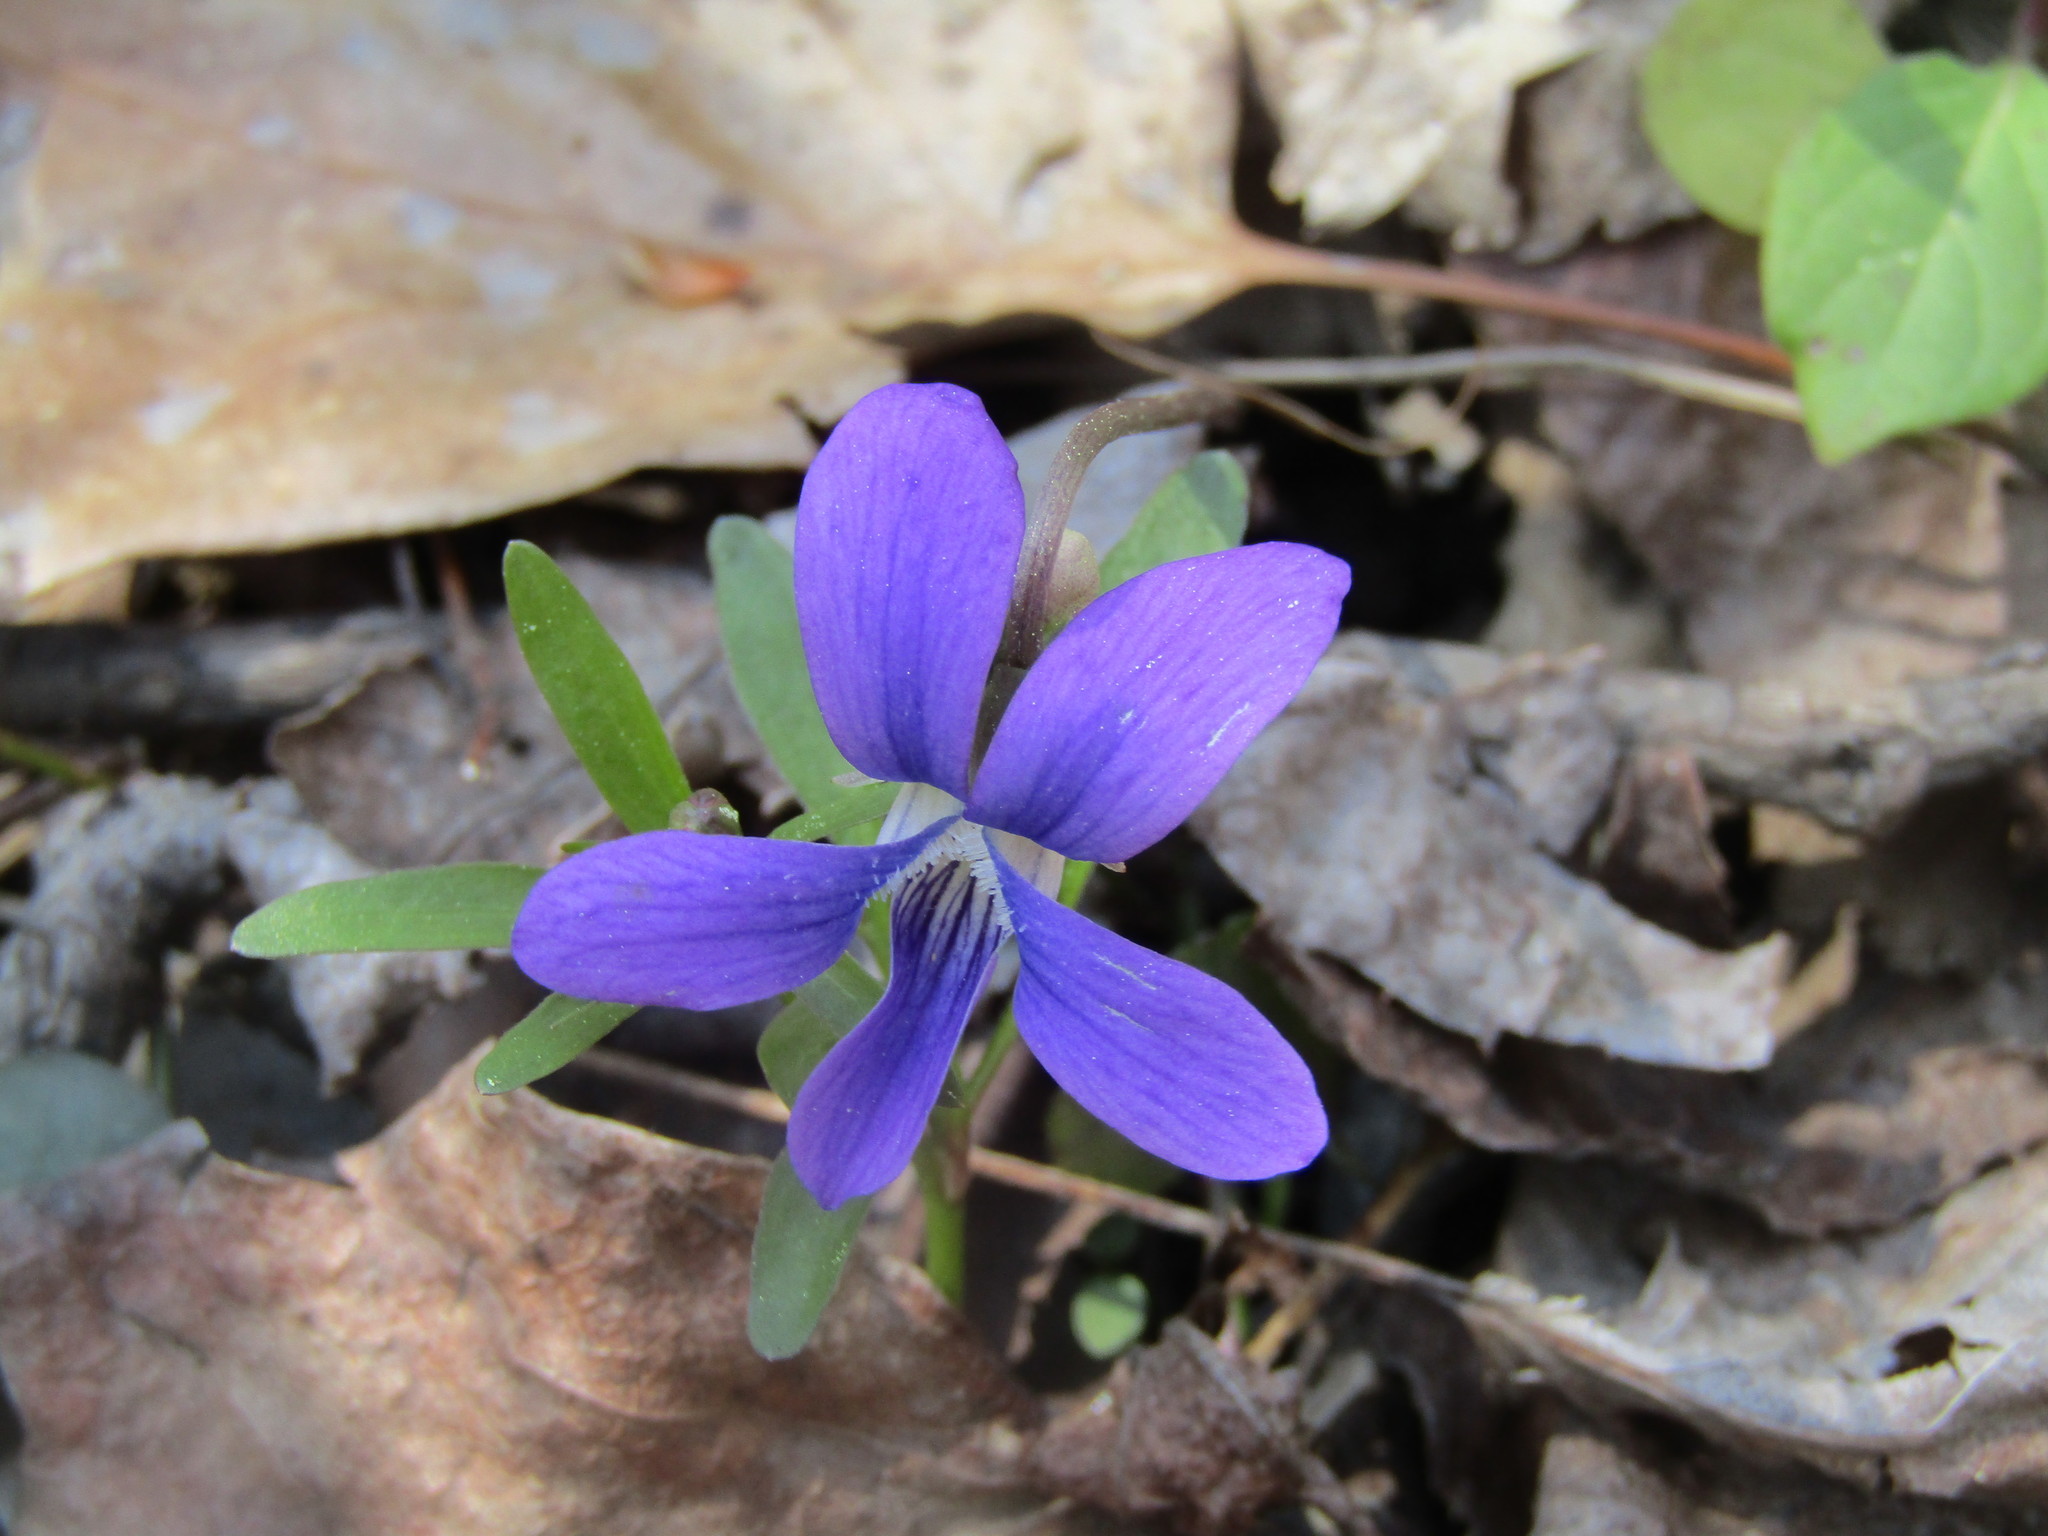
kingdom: Plantae
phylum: Tracheophyta
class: Magnoliopsida
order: Malpighiales
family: Violaceae
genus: Viola
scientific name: Viola sororia
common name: Dooryard violet
